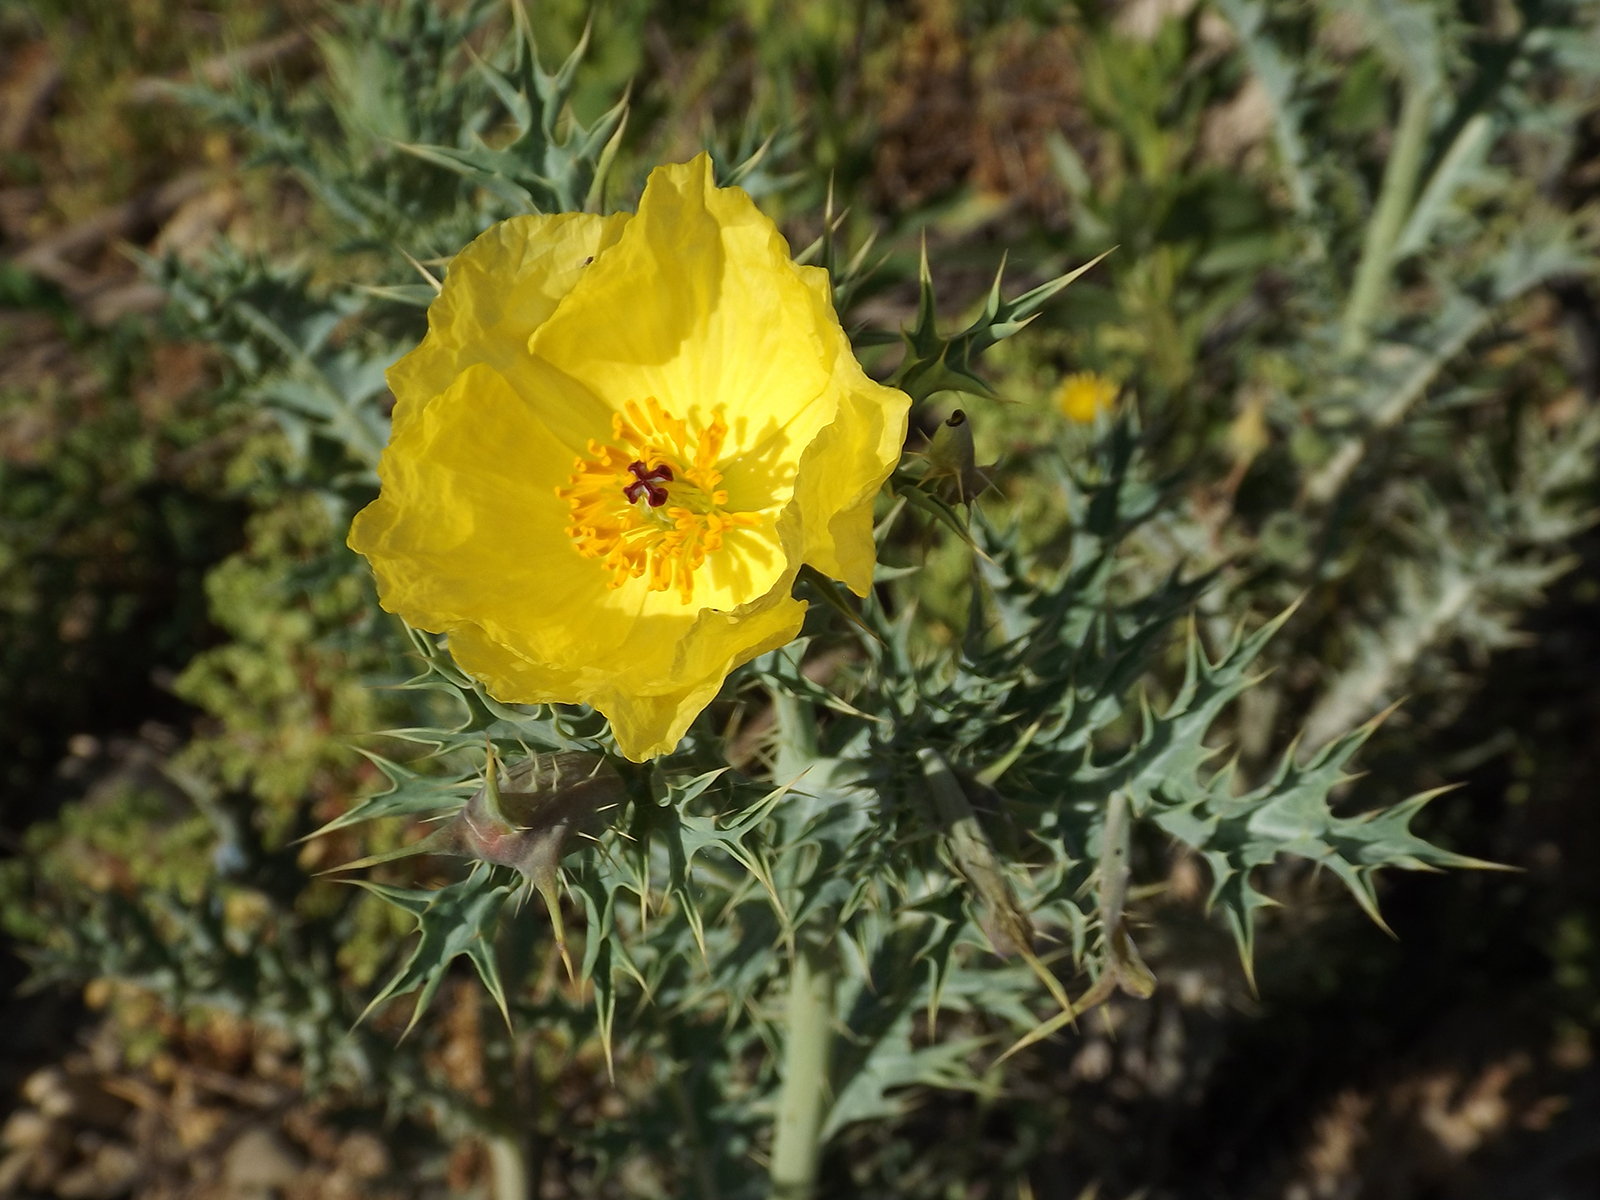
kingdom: Plantae
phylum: Tracheophyta
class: Magnoliopsida
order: Ranunculales
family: Papaveraceae
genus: Argemone
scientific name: Argemone subfusiformis
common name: American-poppy
